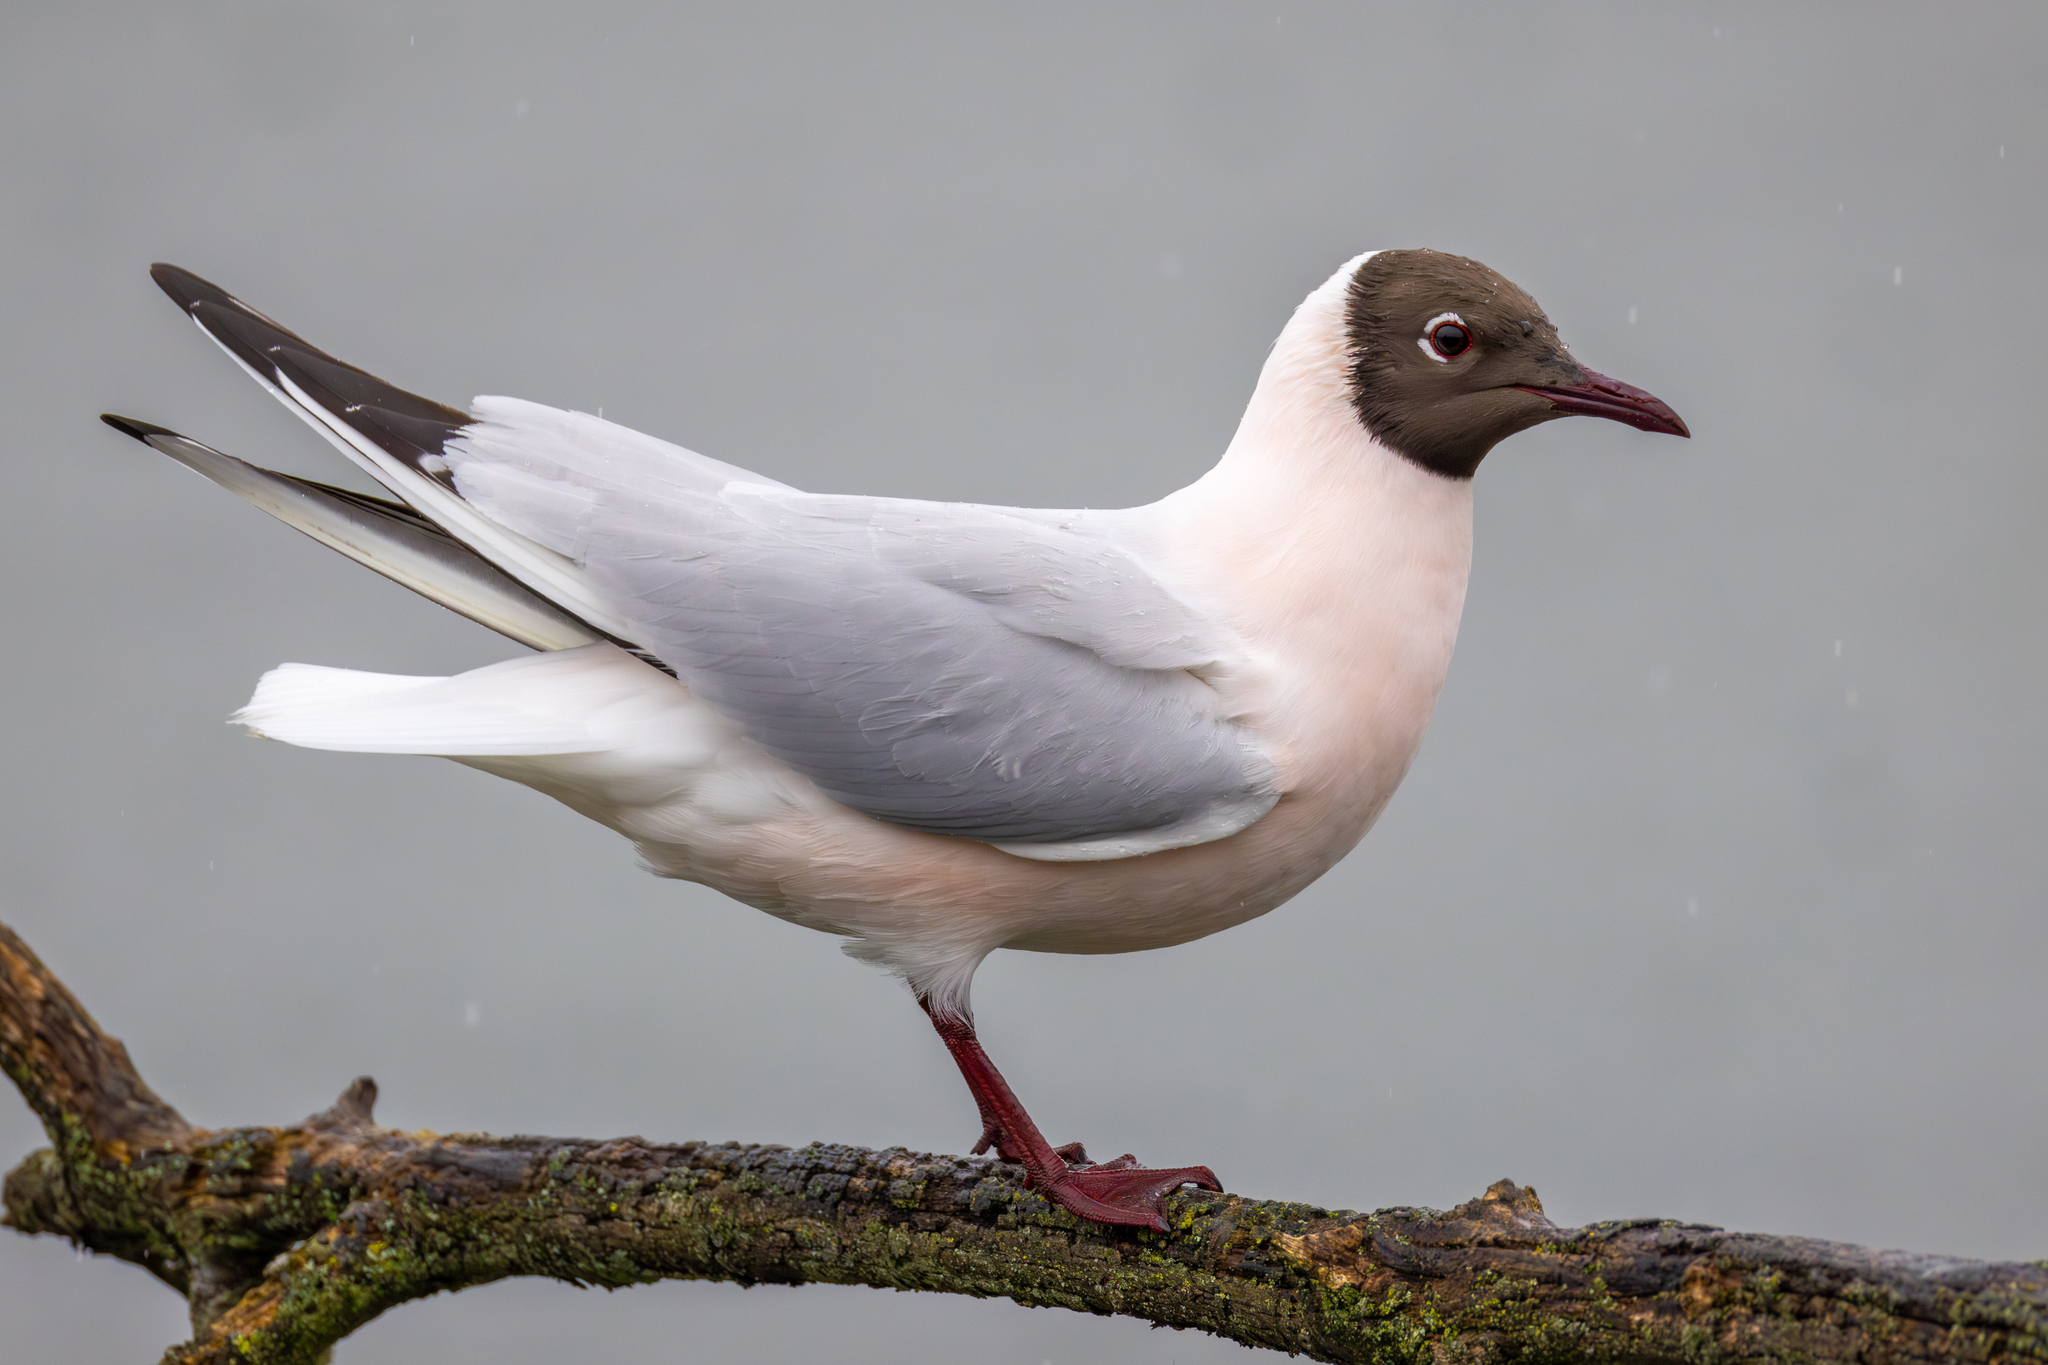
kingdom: Animalia
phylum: Chordata
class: Aves
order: Charadriiformes
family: Laridae
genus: Chroicocephalus
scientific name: Chroicocephalus ridibundus
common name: Black-headed gull
